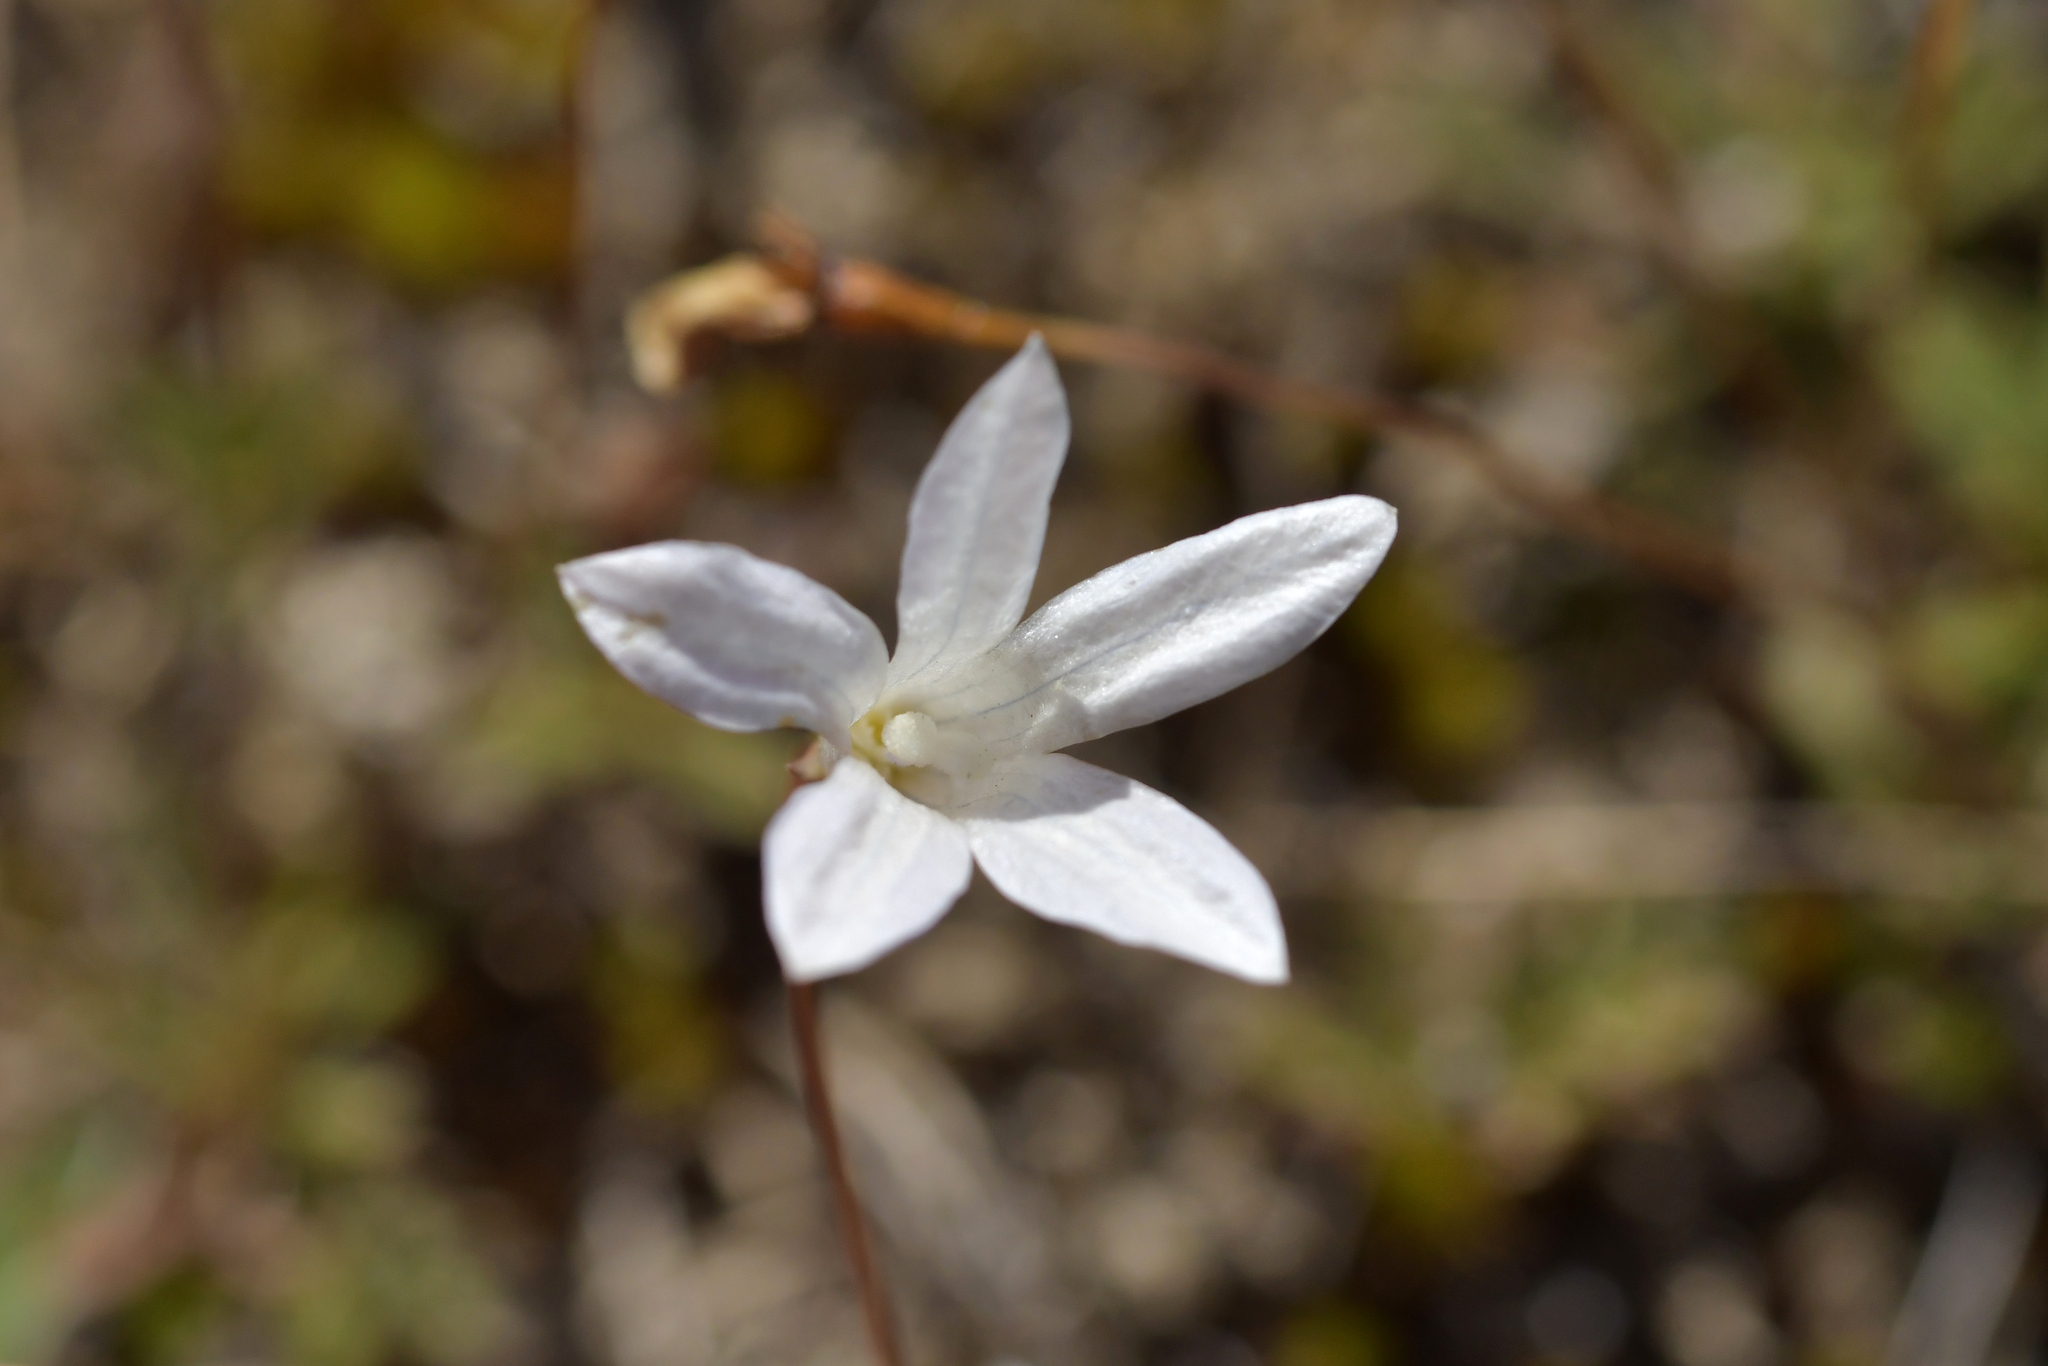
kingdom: Plantae
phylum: Tracheophyta
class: Magnoliopsida
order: Asterales
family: Campanulaceae
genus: Wahlenbergia
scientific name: Wahlenbergia albomarginata
